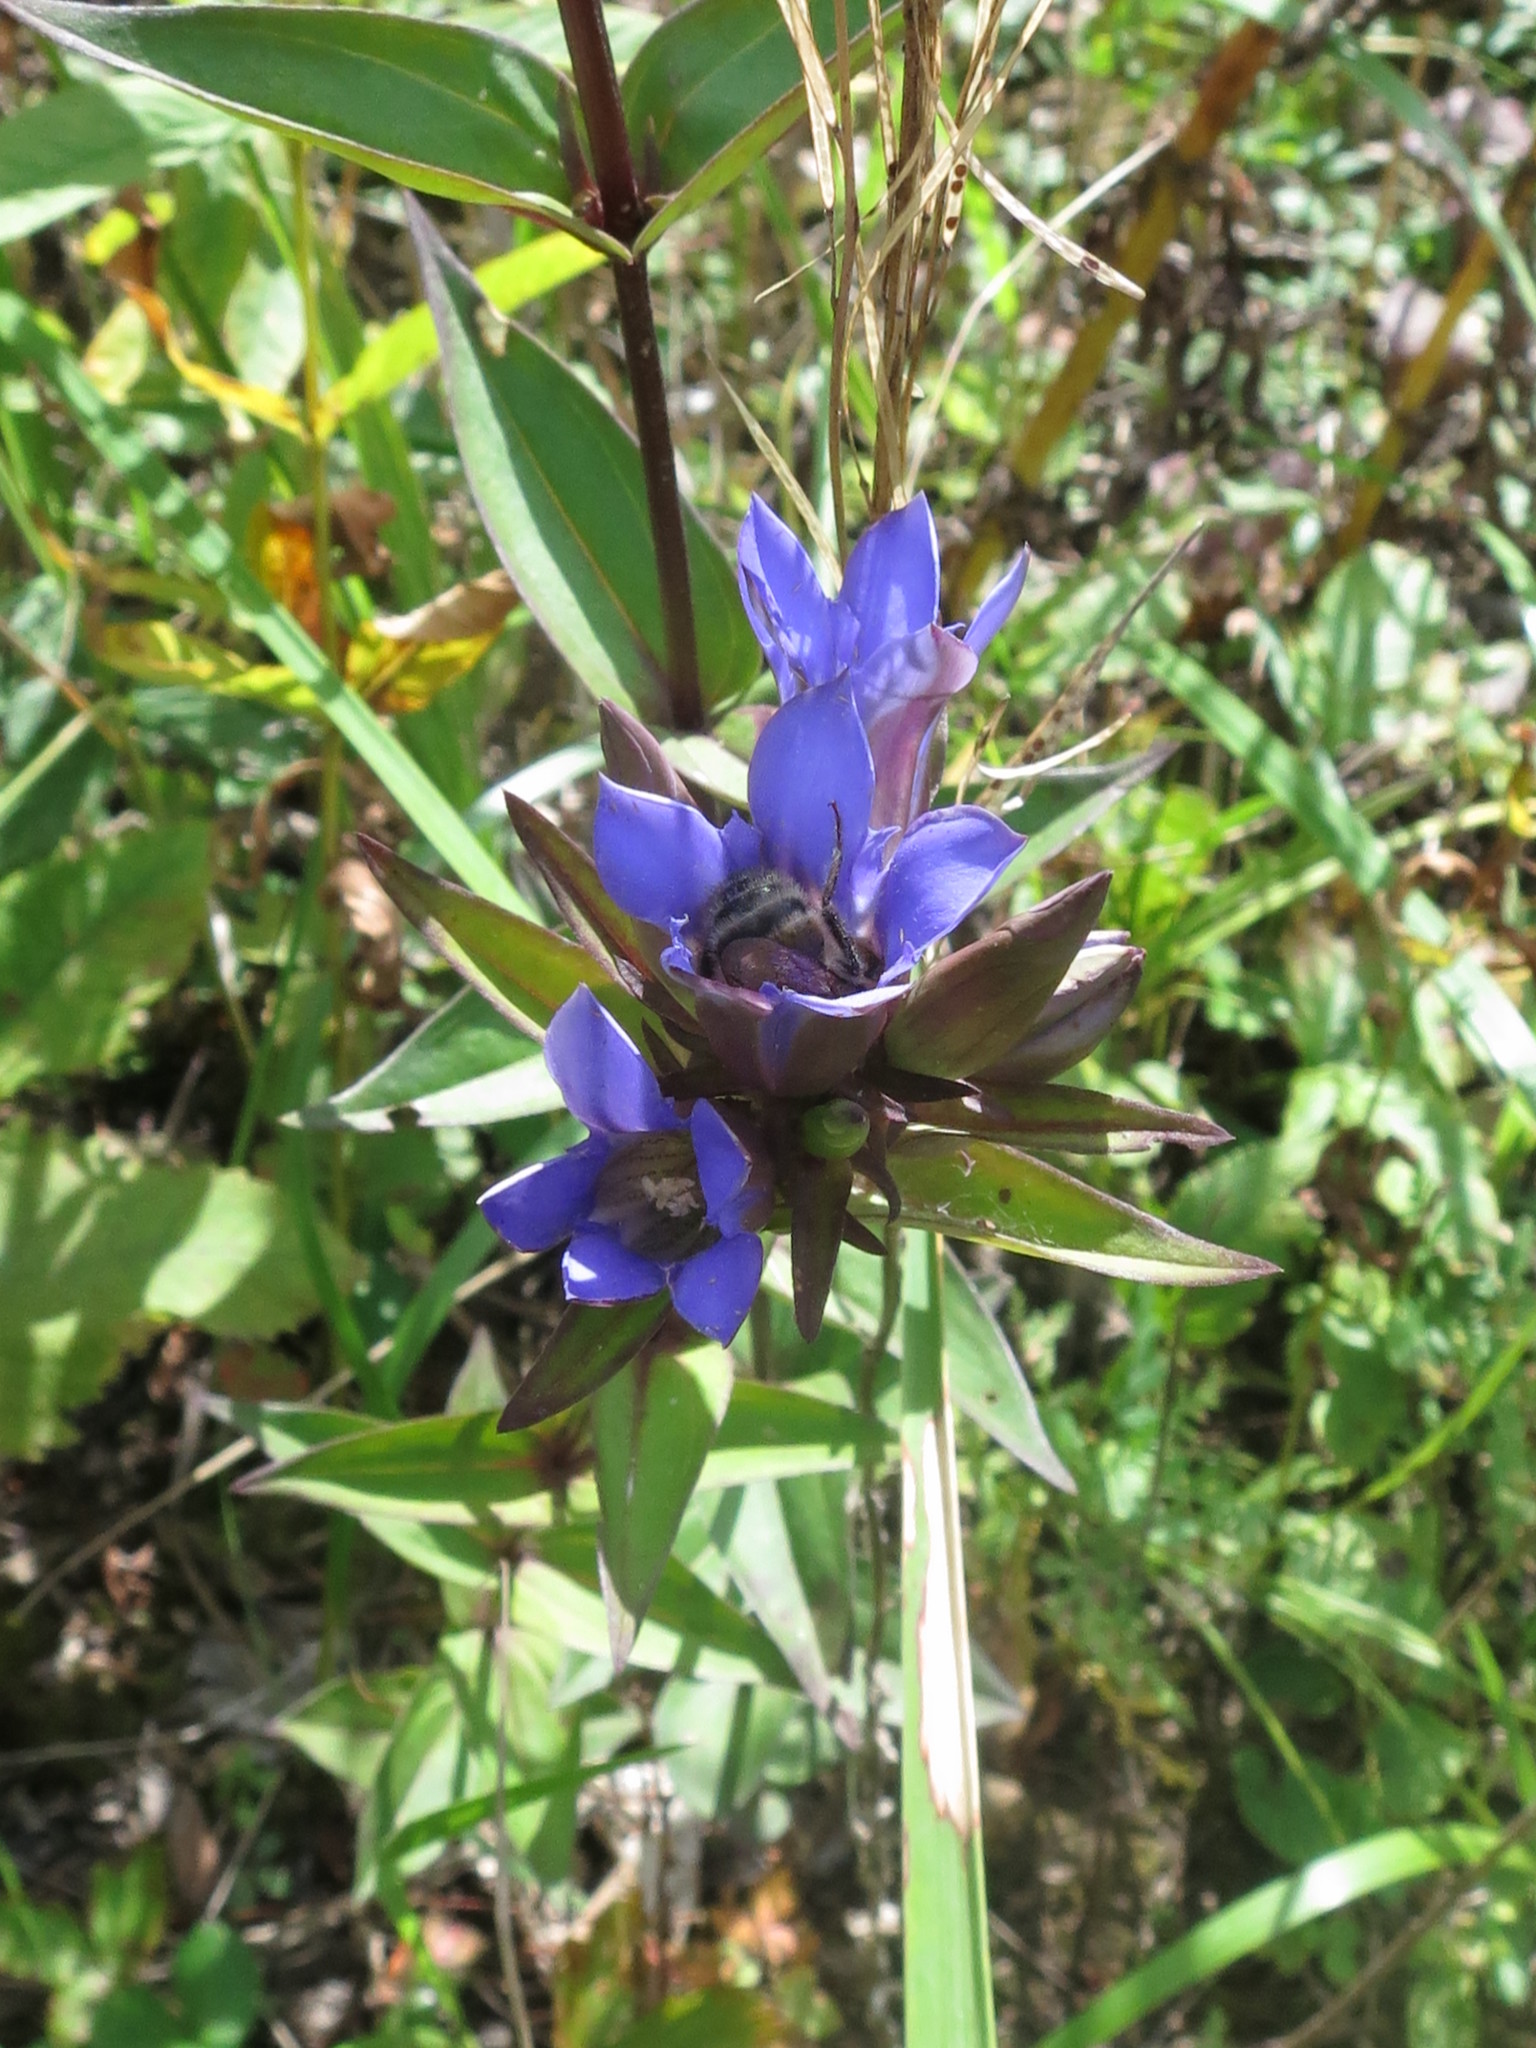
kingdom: Plantae
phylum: Tracheophyta
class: Magnoliopsida
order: Gentianales
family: Gentianaceae
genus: Gentiana
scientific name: Gentiana scabra
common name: Scabrous gentian
